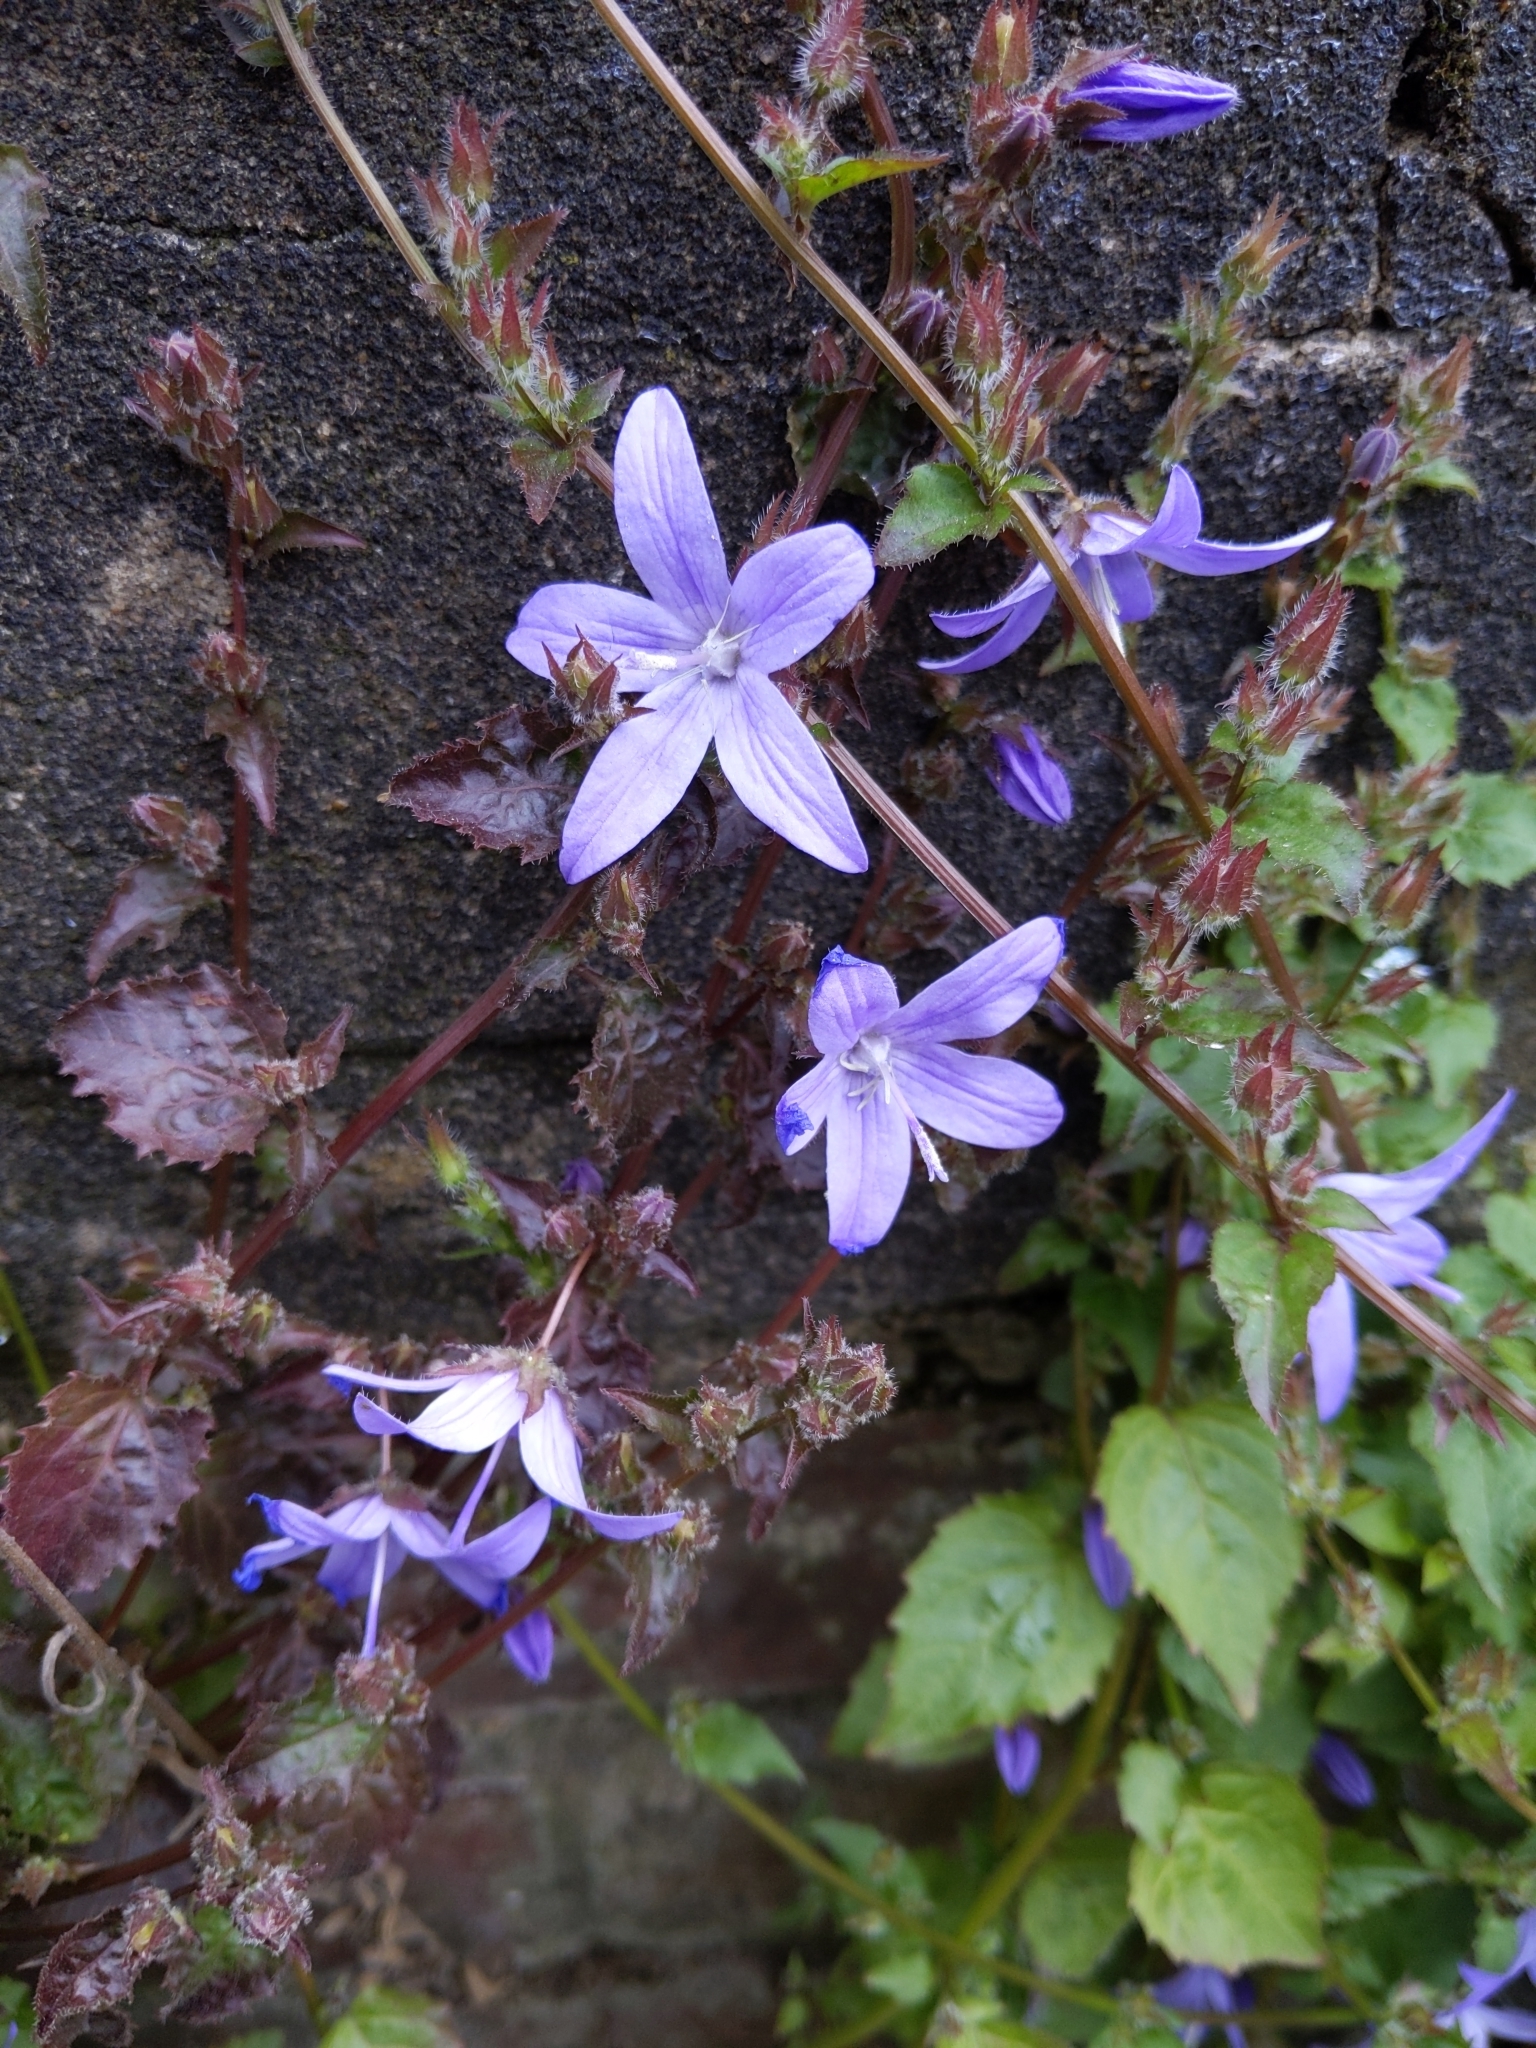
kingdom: Plantae
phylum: Tracheophyta
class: Magnoliopsida
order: Asterales
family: Campanulaceae
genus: Campanula
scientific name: Campanula poscharskyana
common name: Trailing bellflower
